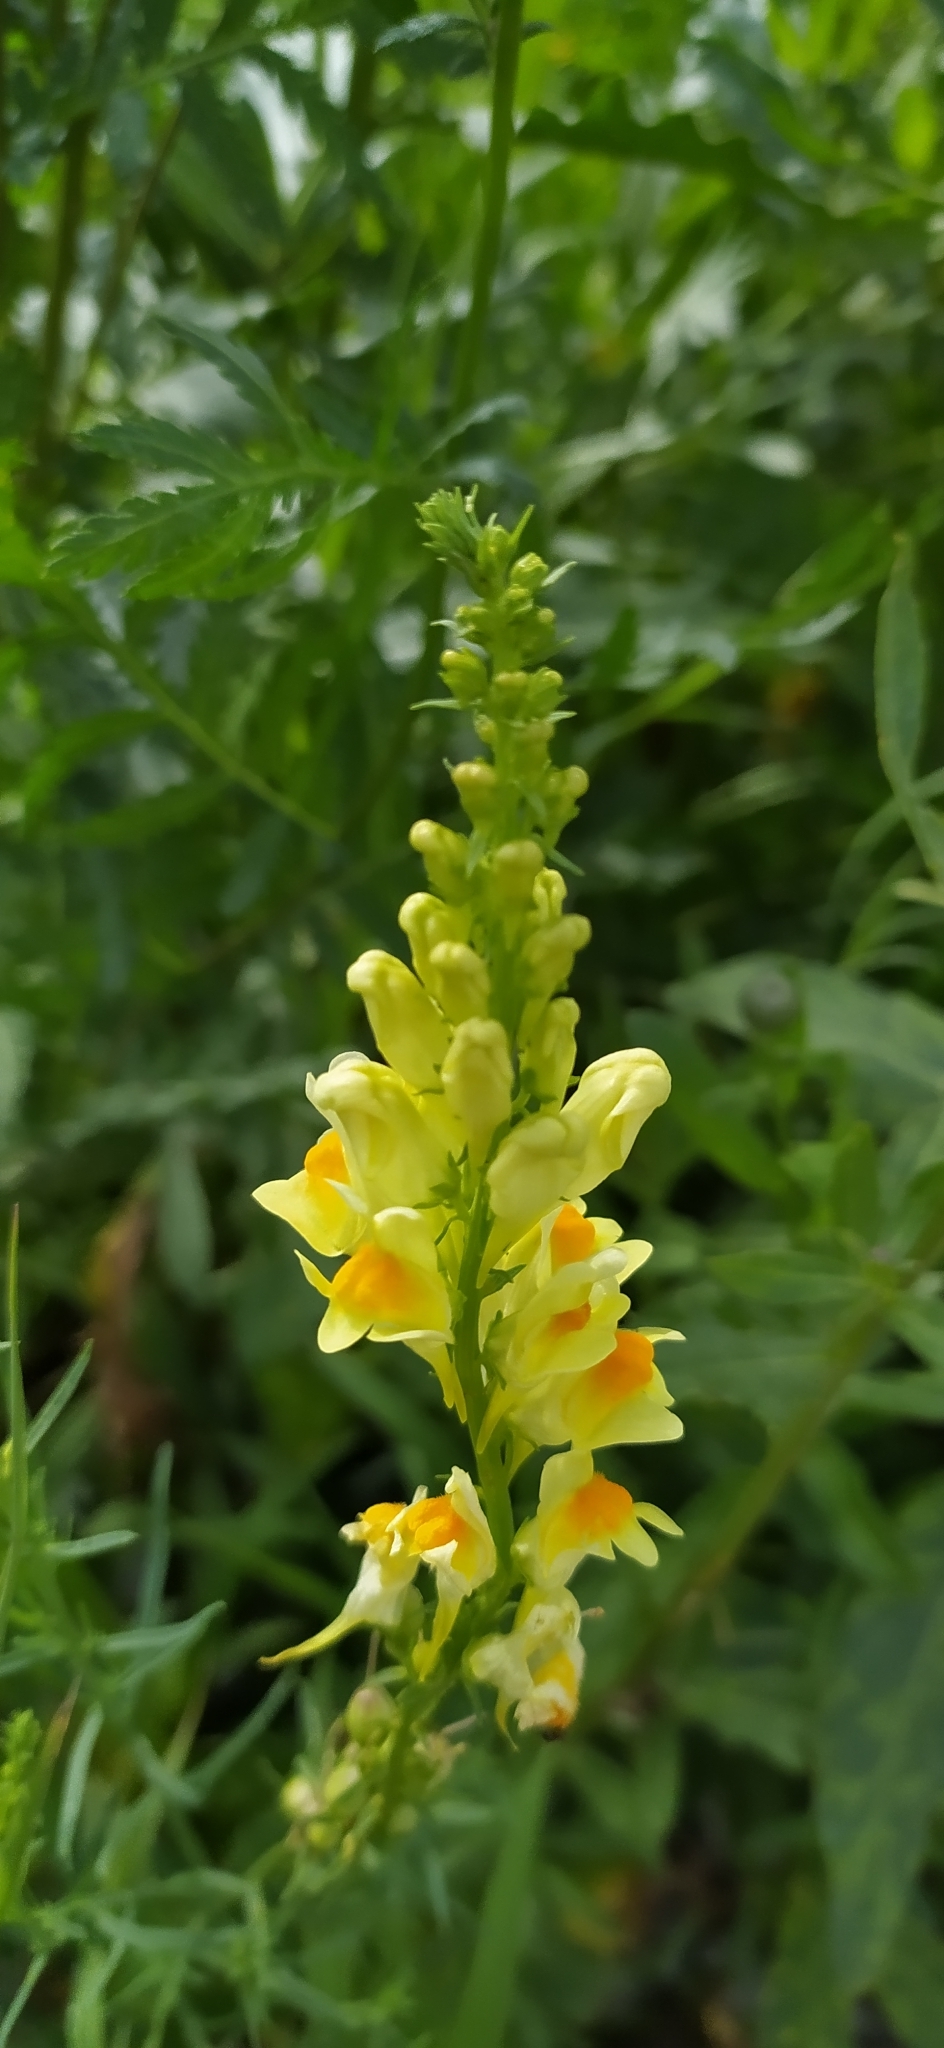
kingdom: Plantae
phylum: Tracheophyta
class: Magnoliopsida
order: Lamiales
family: Plantaginaceae
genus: Linaria
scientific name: Linaria vulgaris
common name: Butter and eggs
